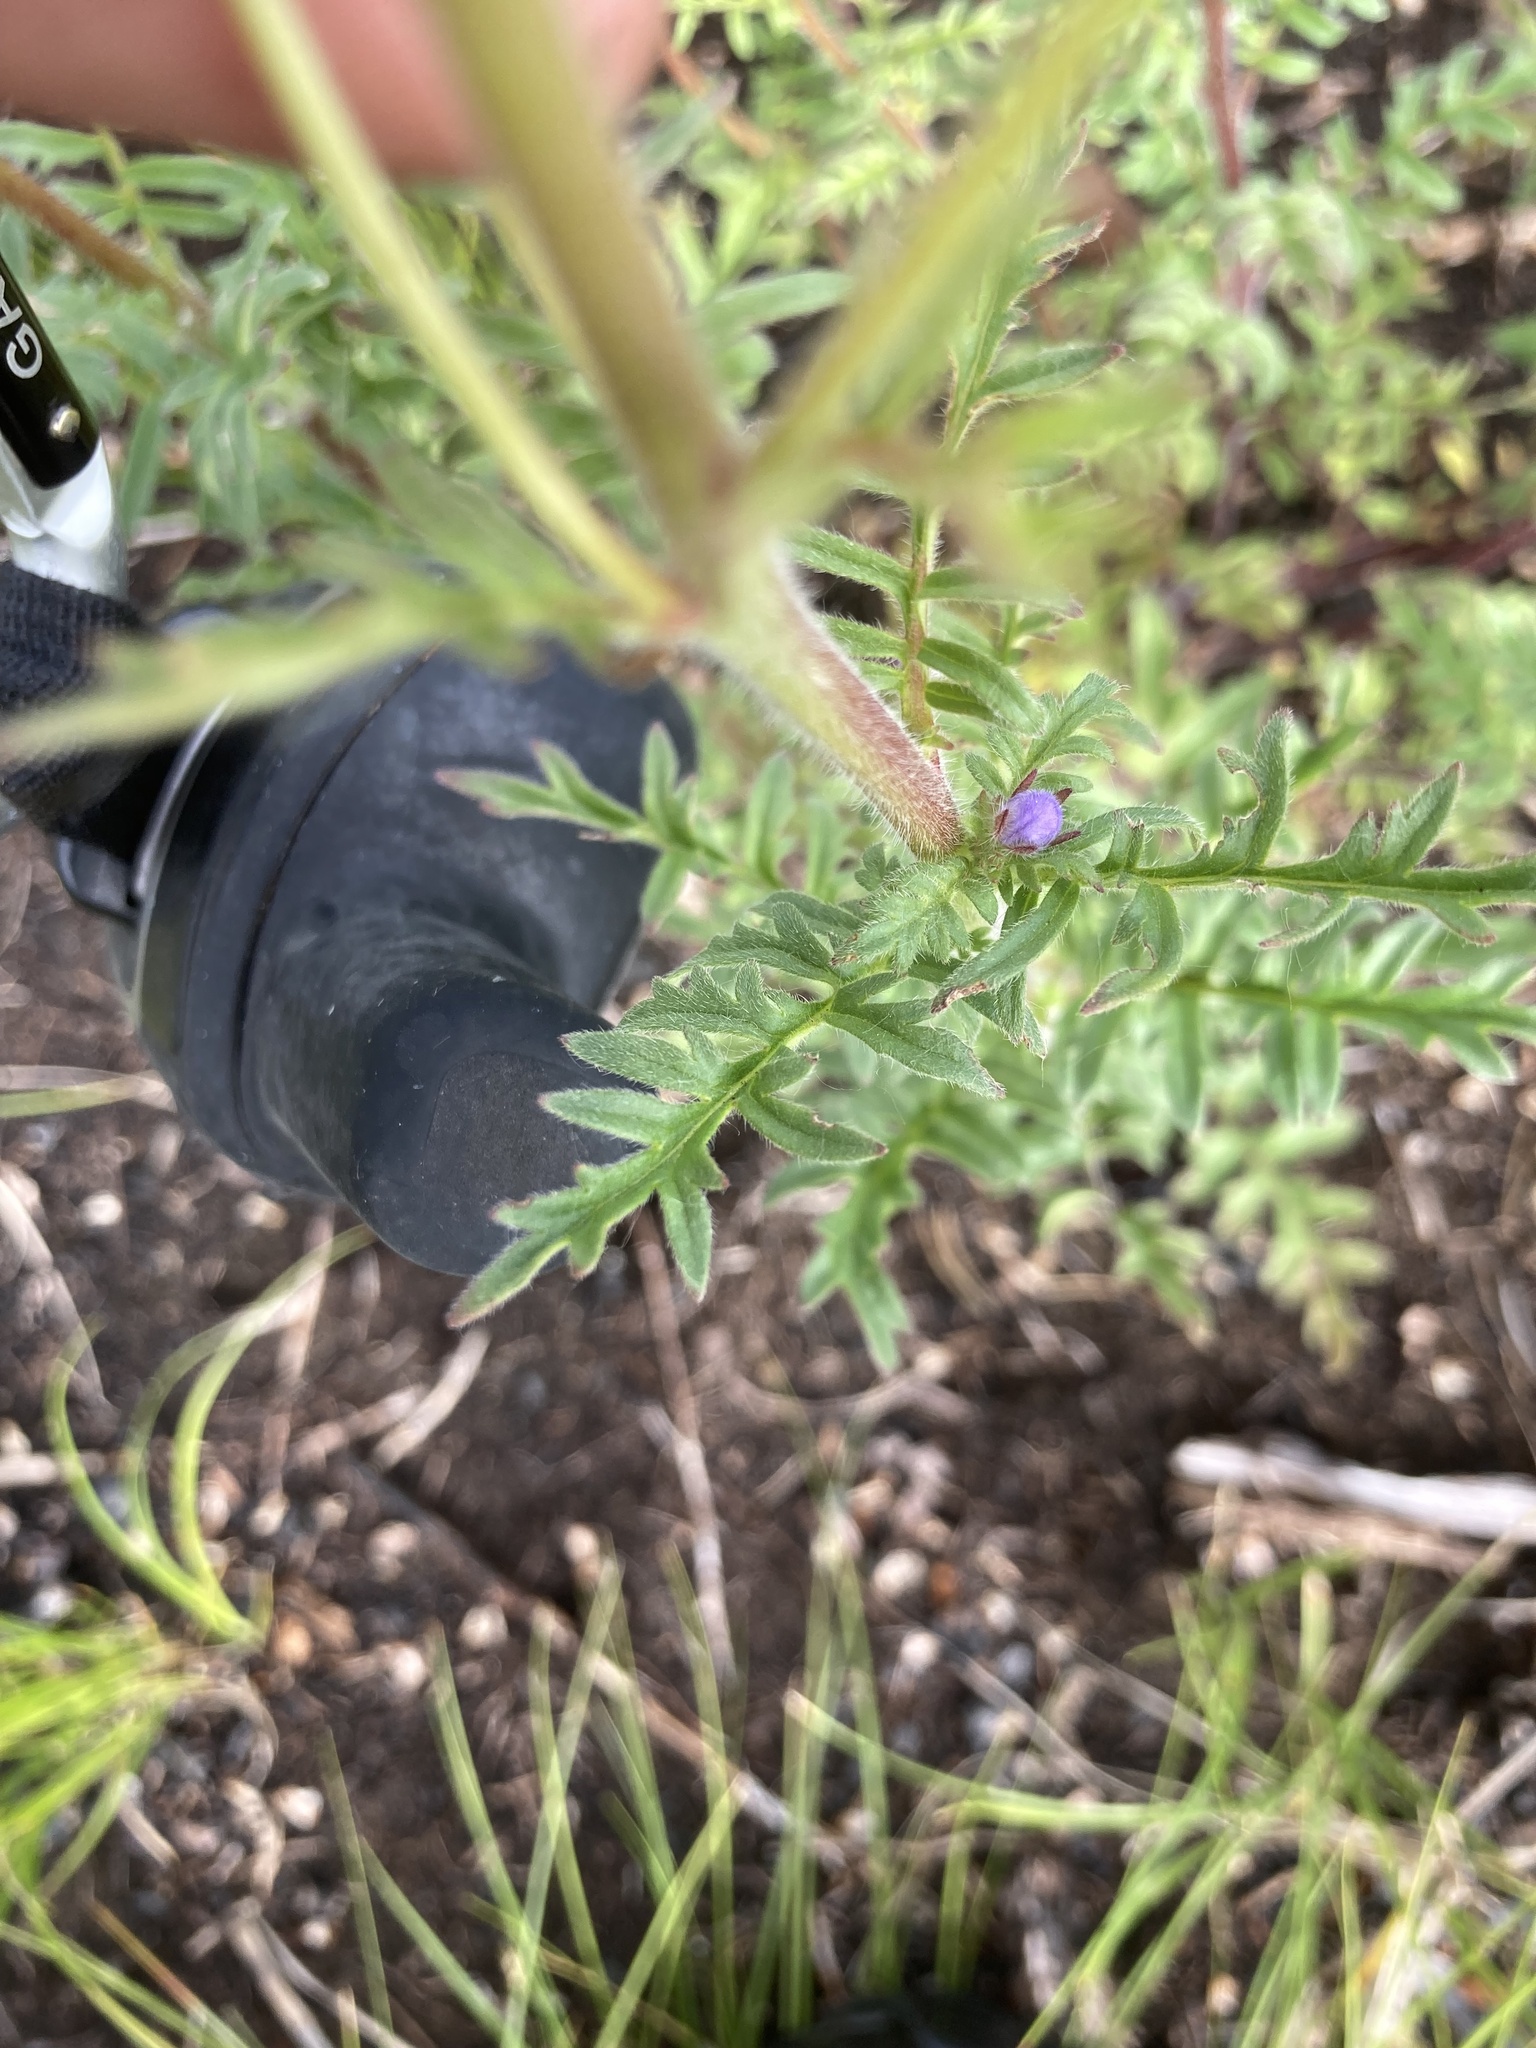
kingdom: Plantae
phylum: Tracheophyta
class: Magnoliopsida
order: Boraginales
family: Hydrophyllaceae
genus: Phacelia
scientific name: Phacelia franklinii
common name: Franklin's phacelia
